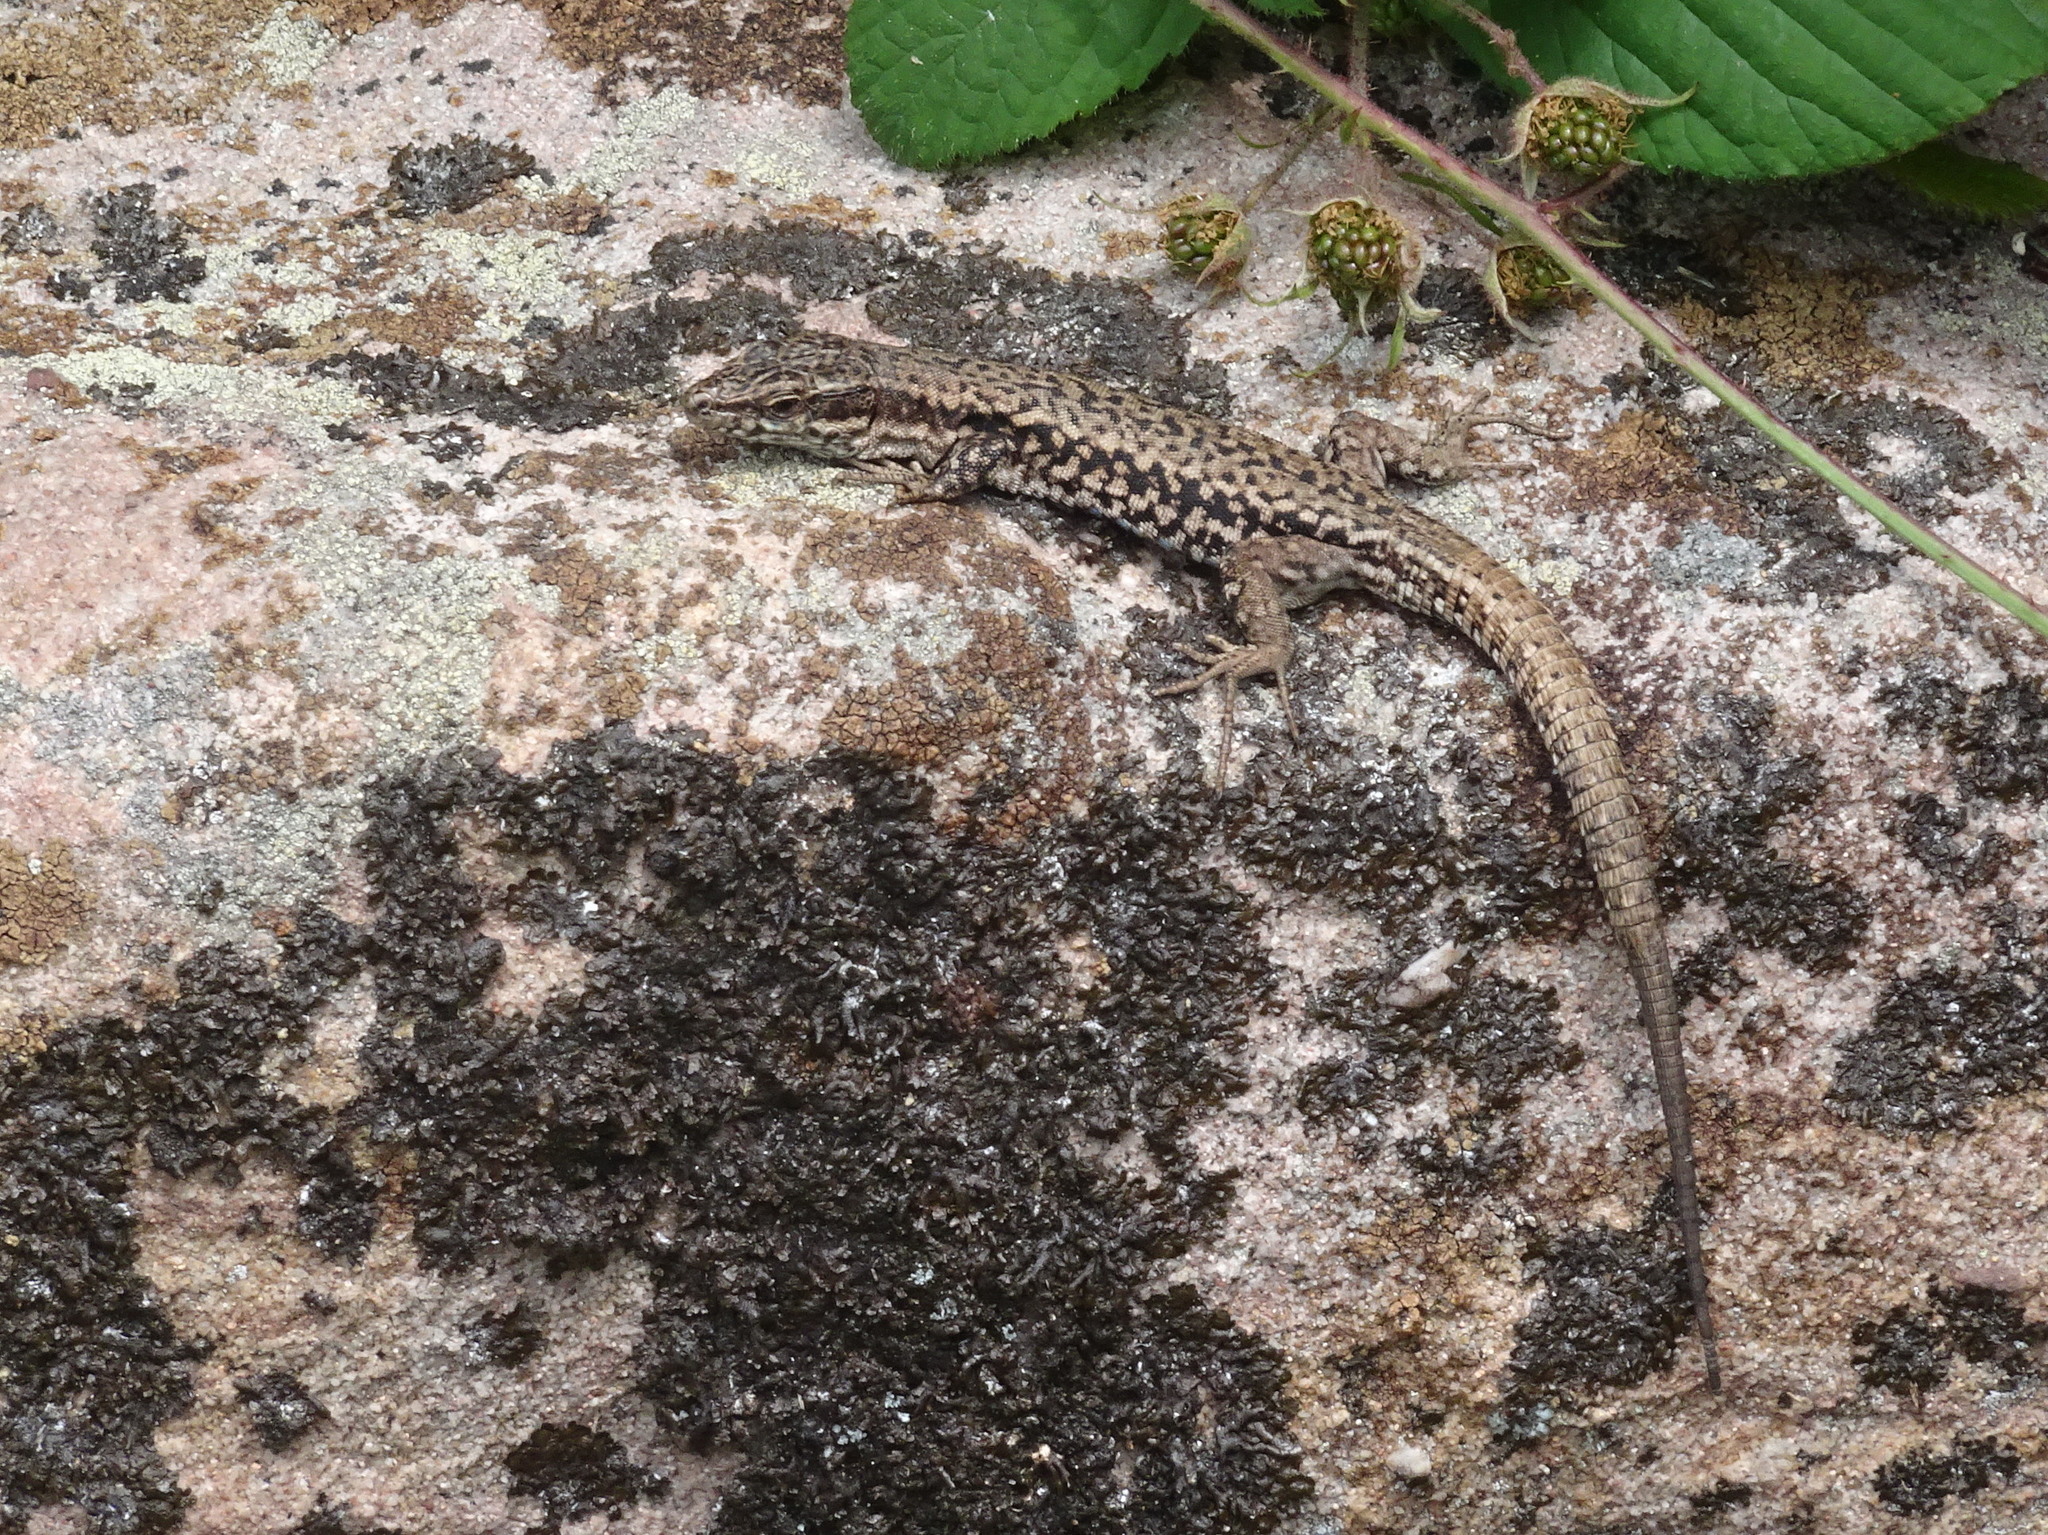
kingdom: Animalia
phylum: Chordata
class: Squamata
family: Lacertidae
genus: Podarcis
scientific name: Podarcis muralis
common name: Common wall lizard
